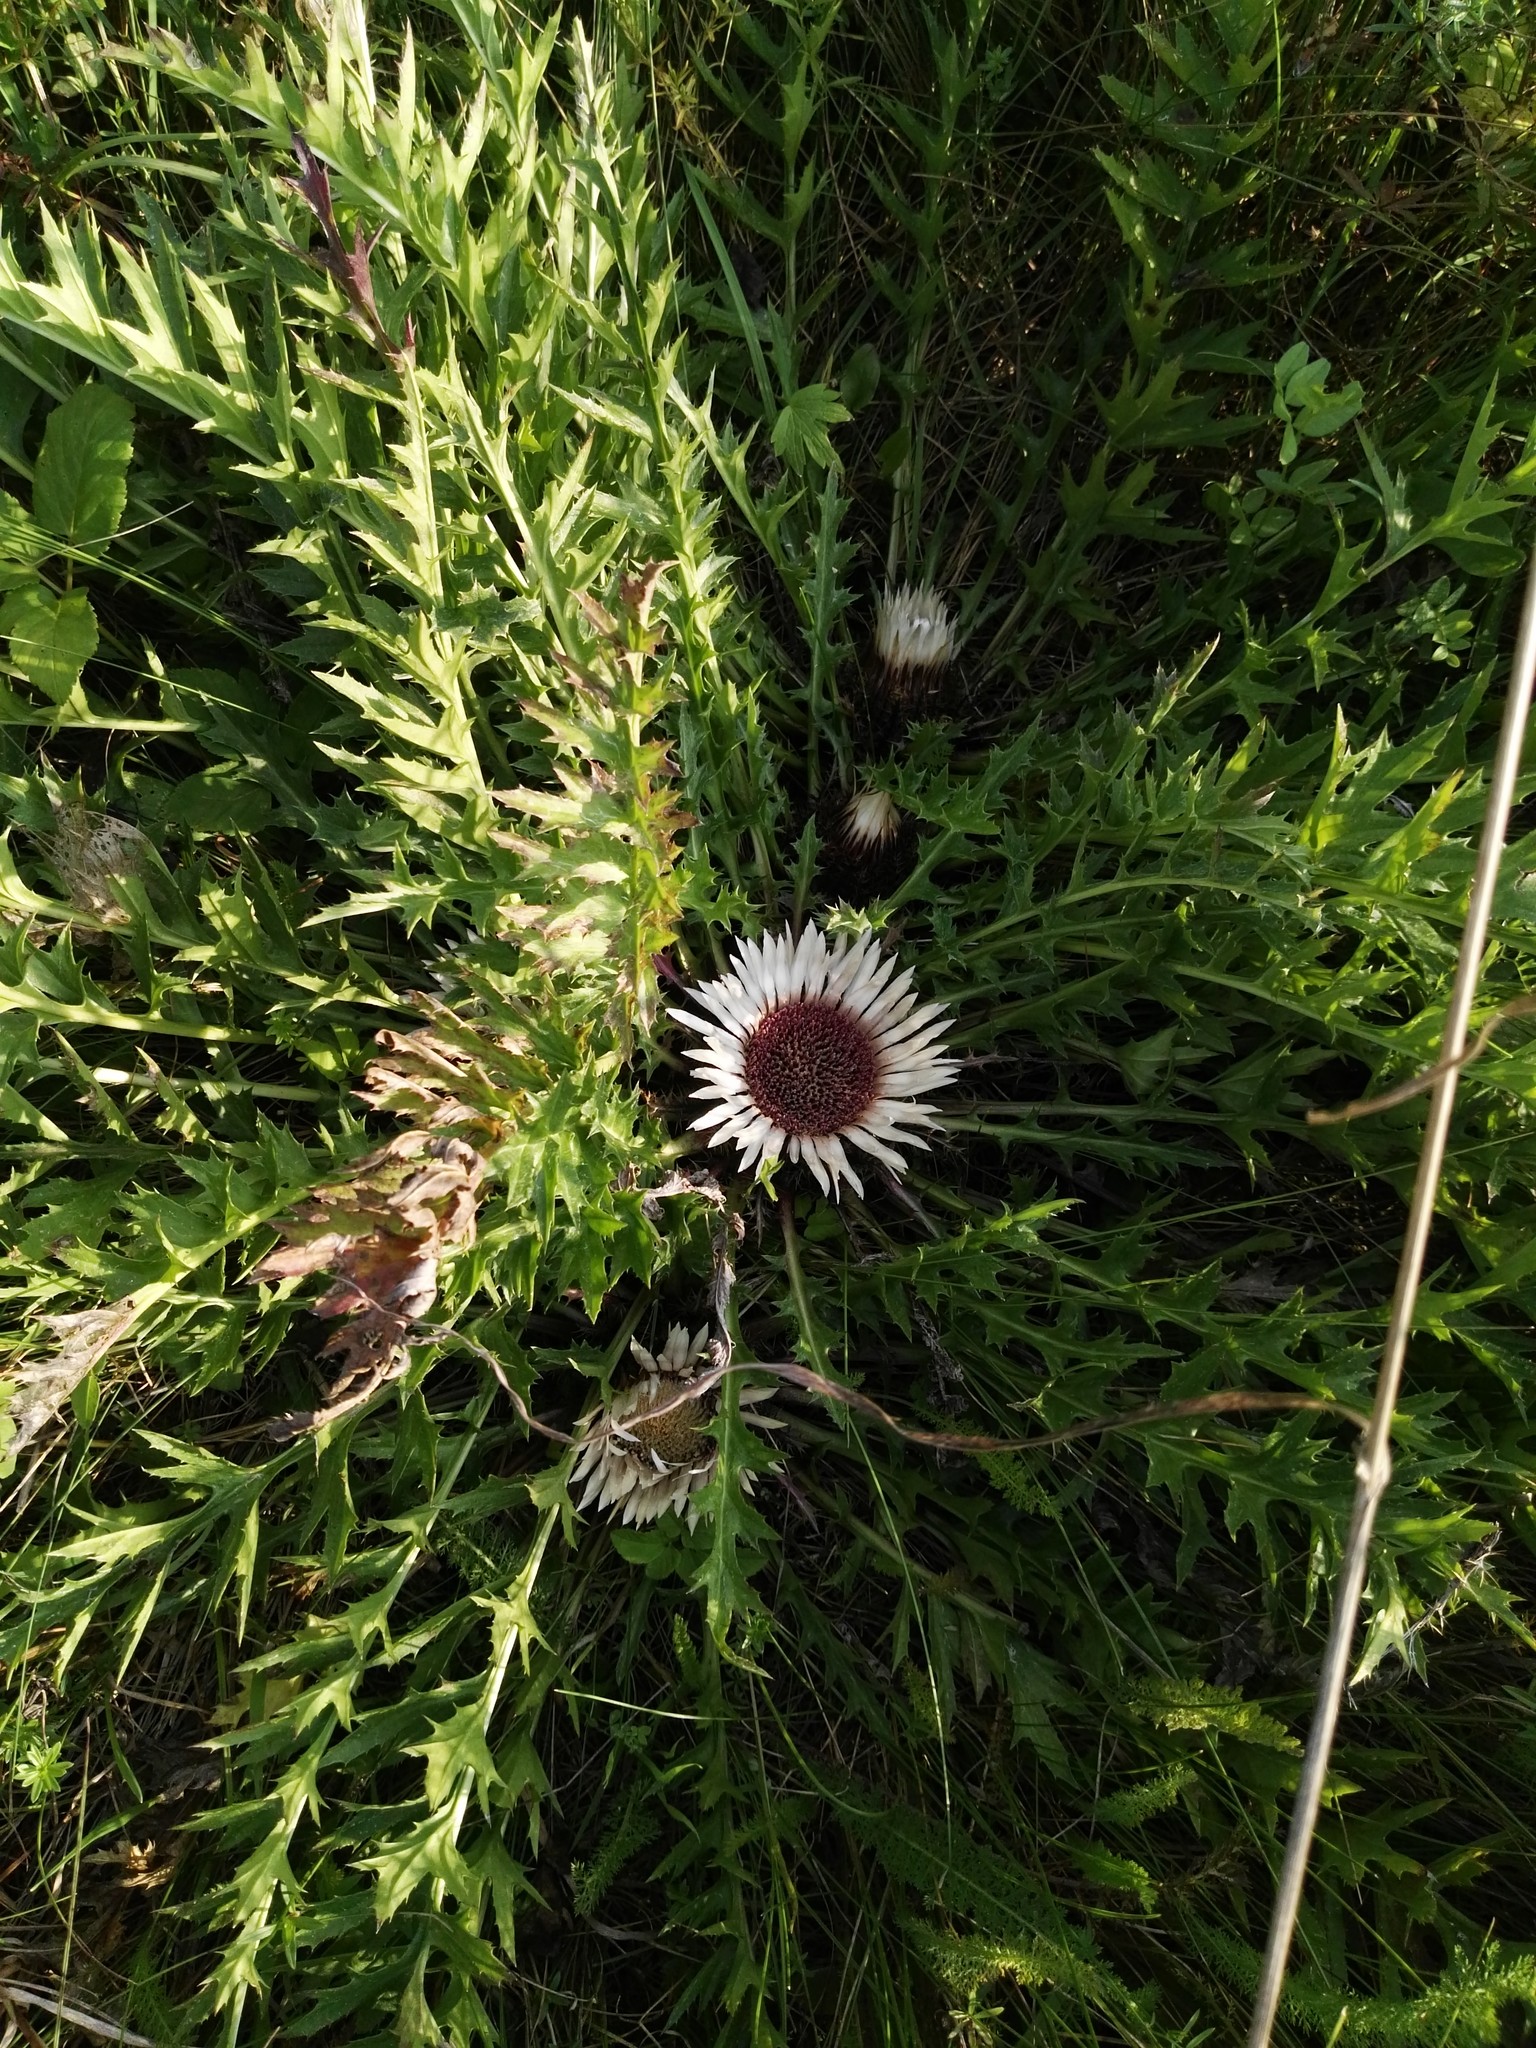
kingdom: Plantae
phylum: Tracheophyta
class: Magnoliopsida
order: Asterales
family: Asteraceae
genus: Carlina
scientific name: Carlina acaulis
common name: Stemless carline thistle
